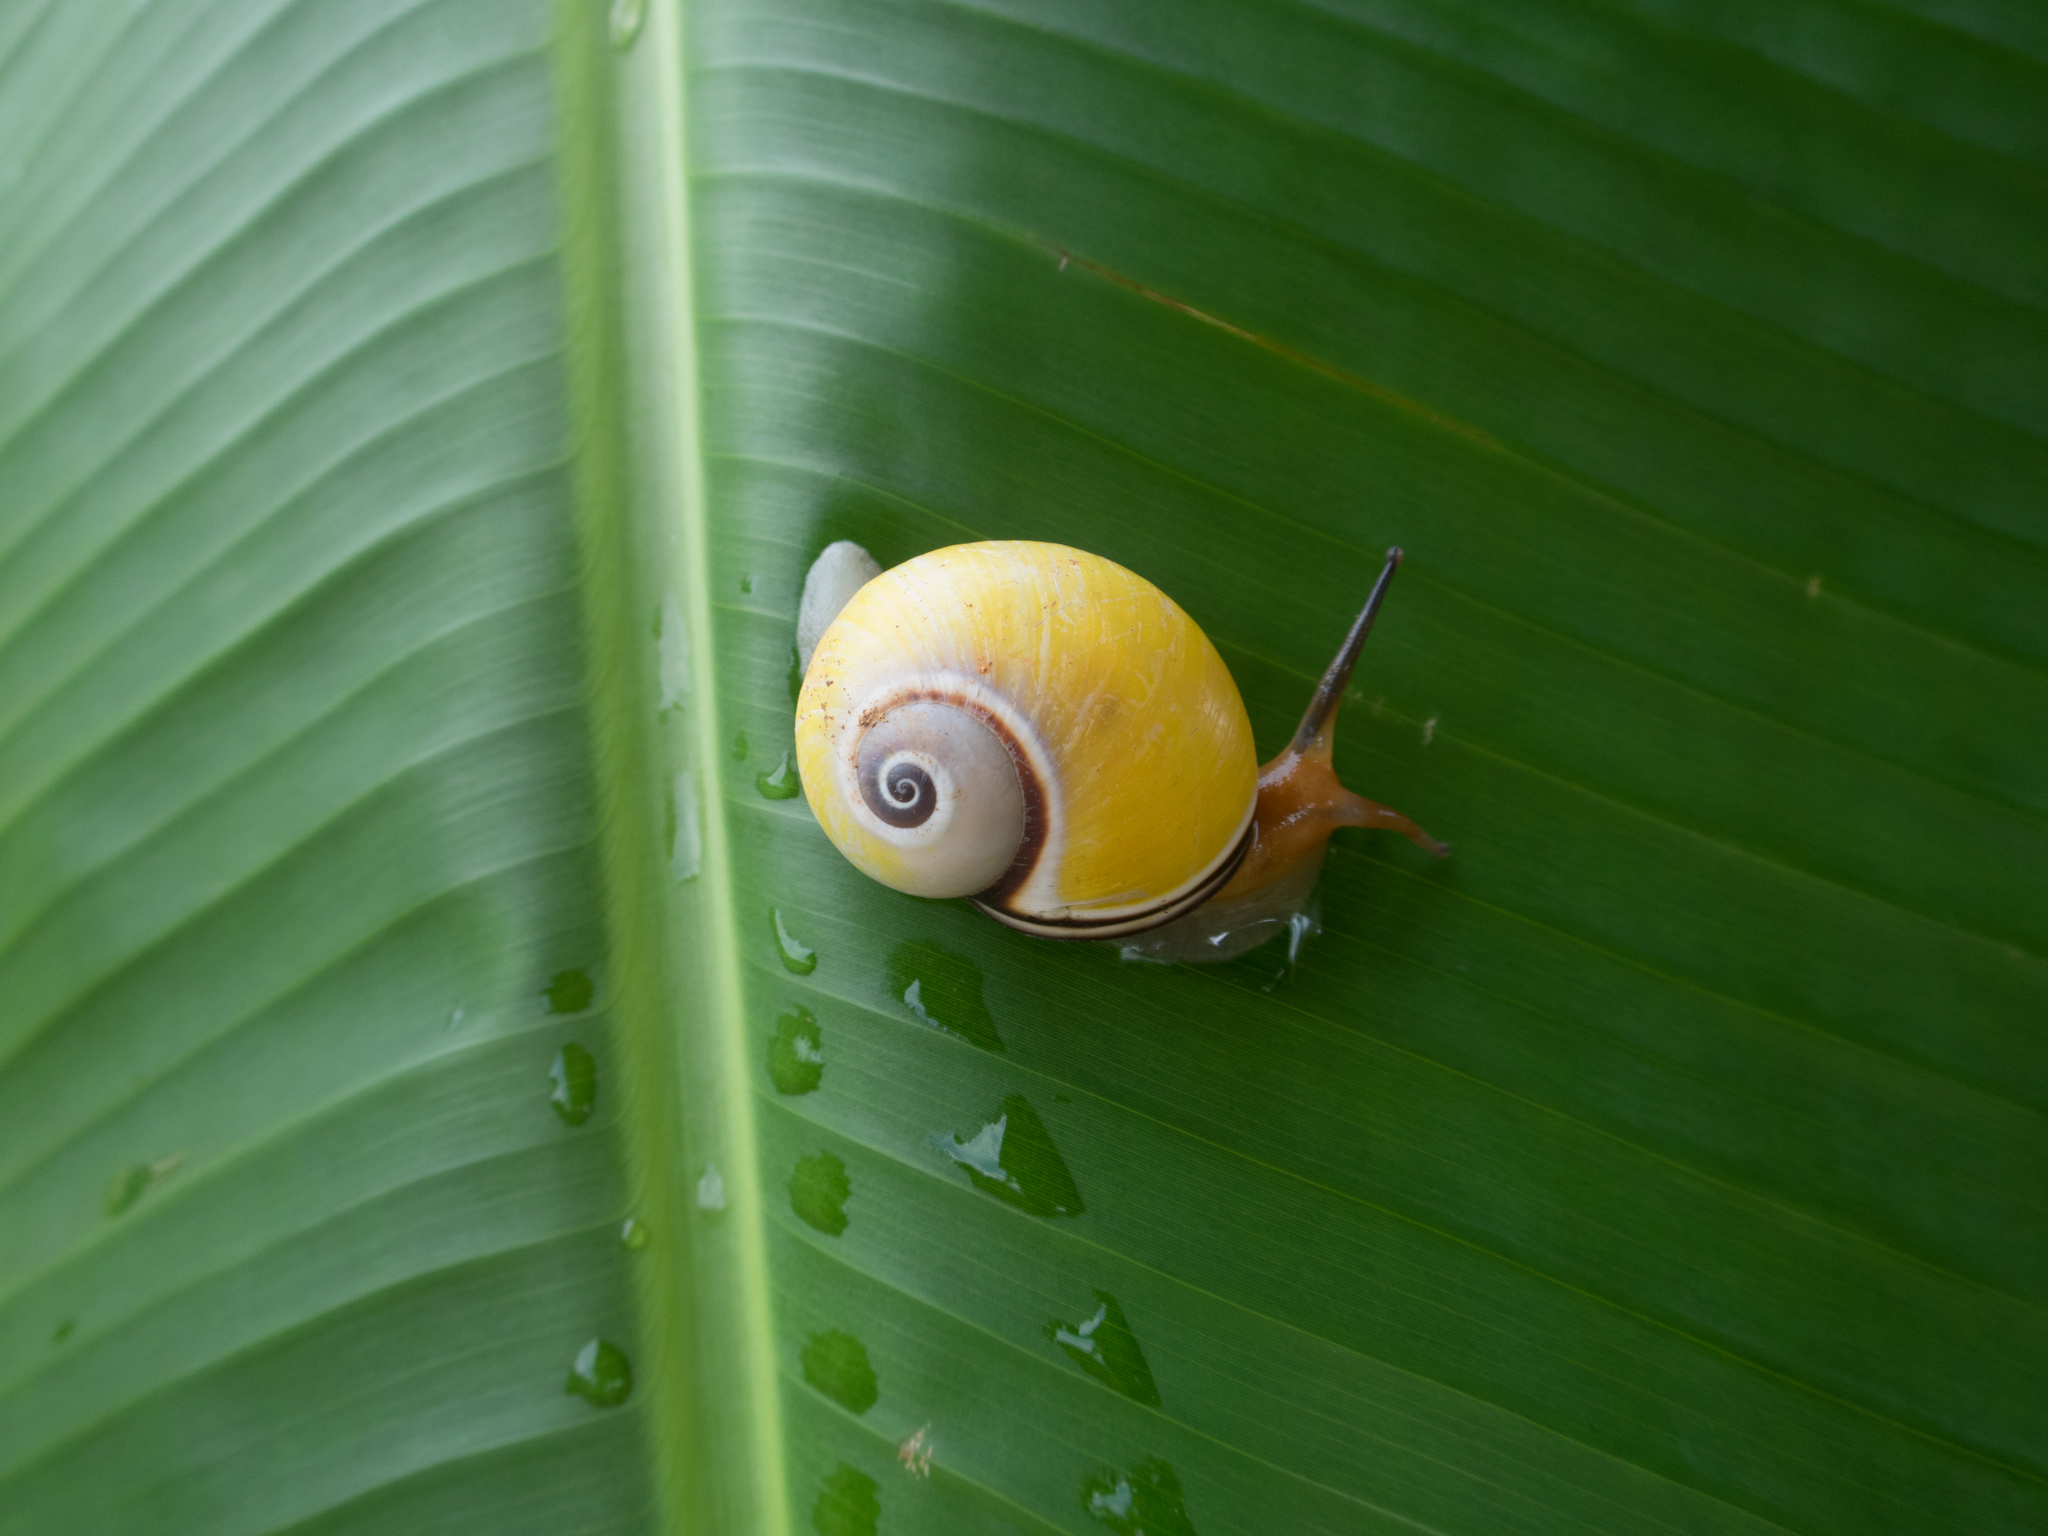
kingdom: Animalia
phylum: Mollusca
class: Gastropoda
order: Stylommatophora
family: Cepolidae
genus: Polymita
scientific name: Polymita picta
